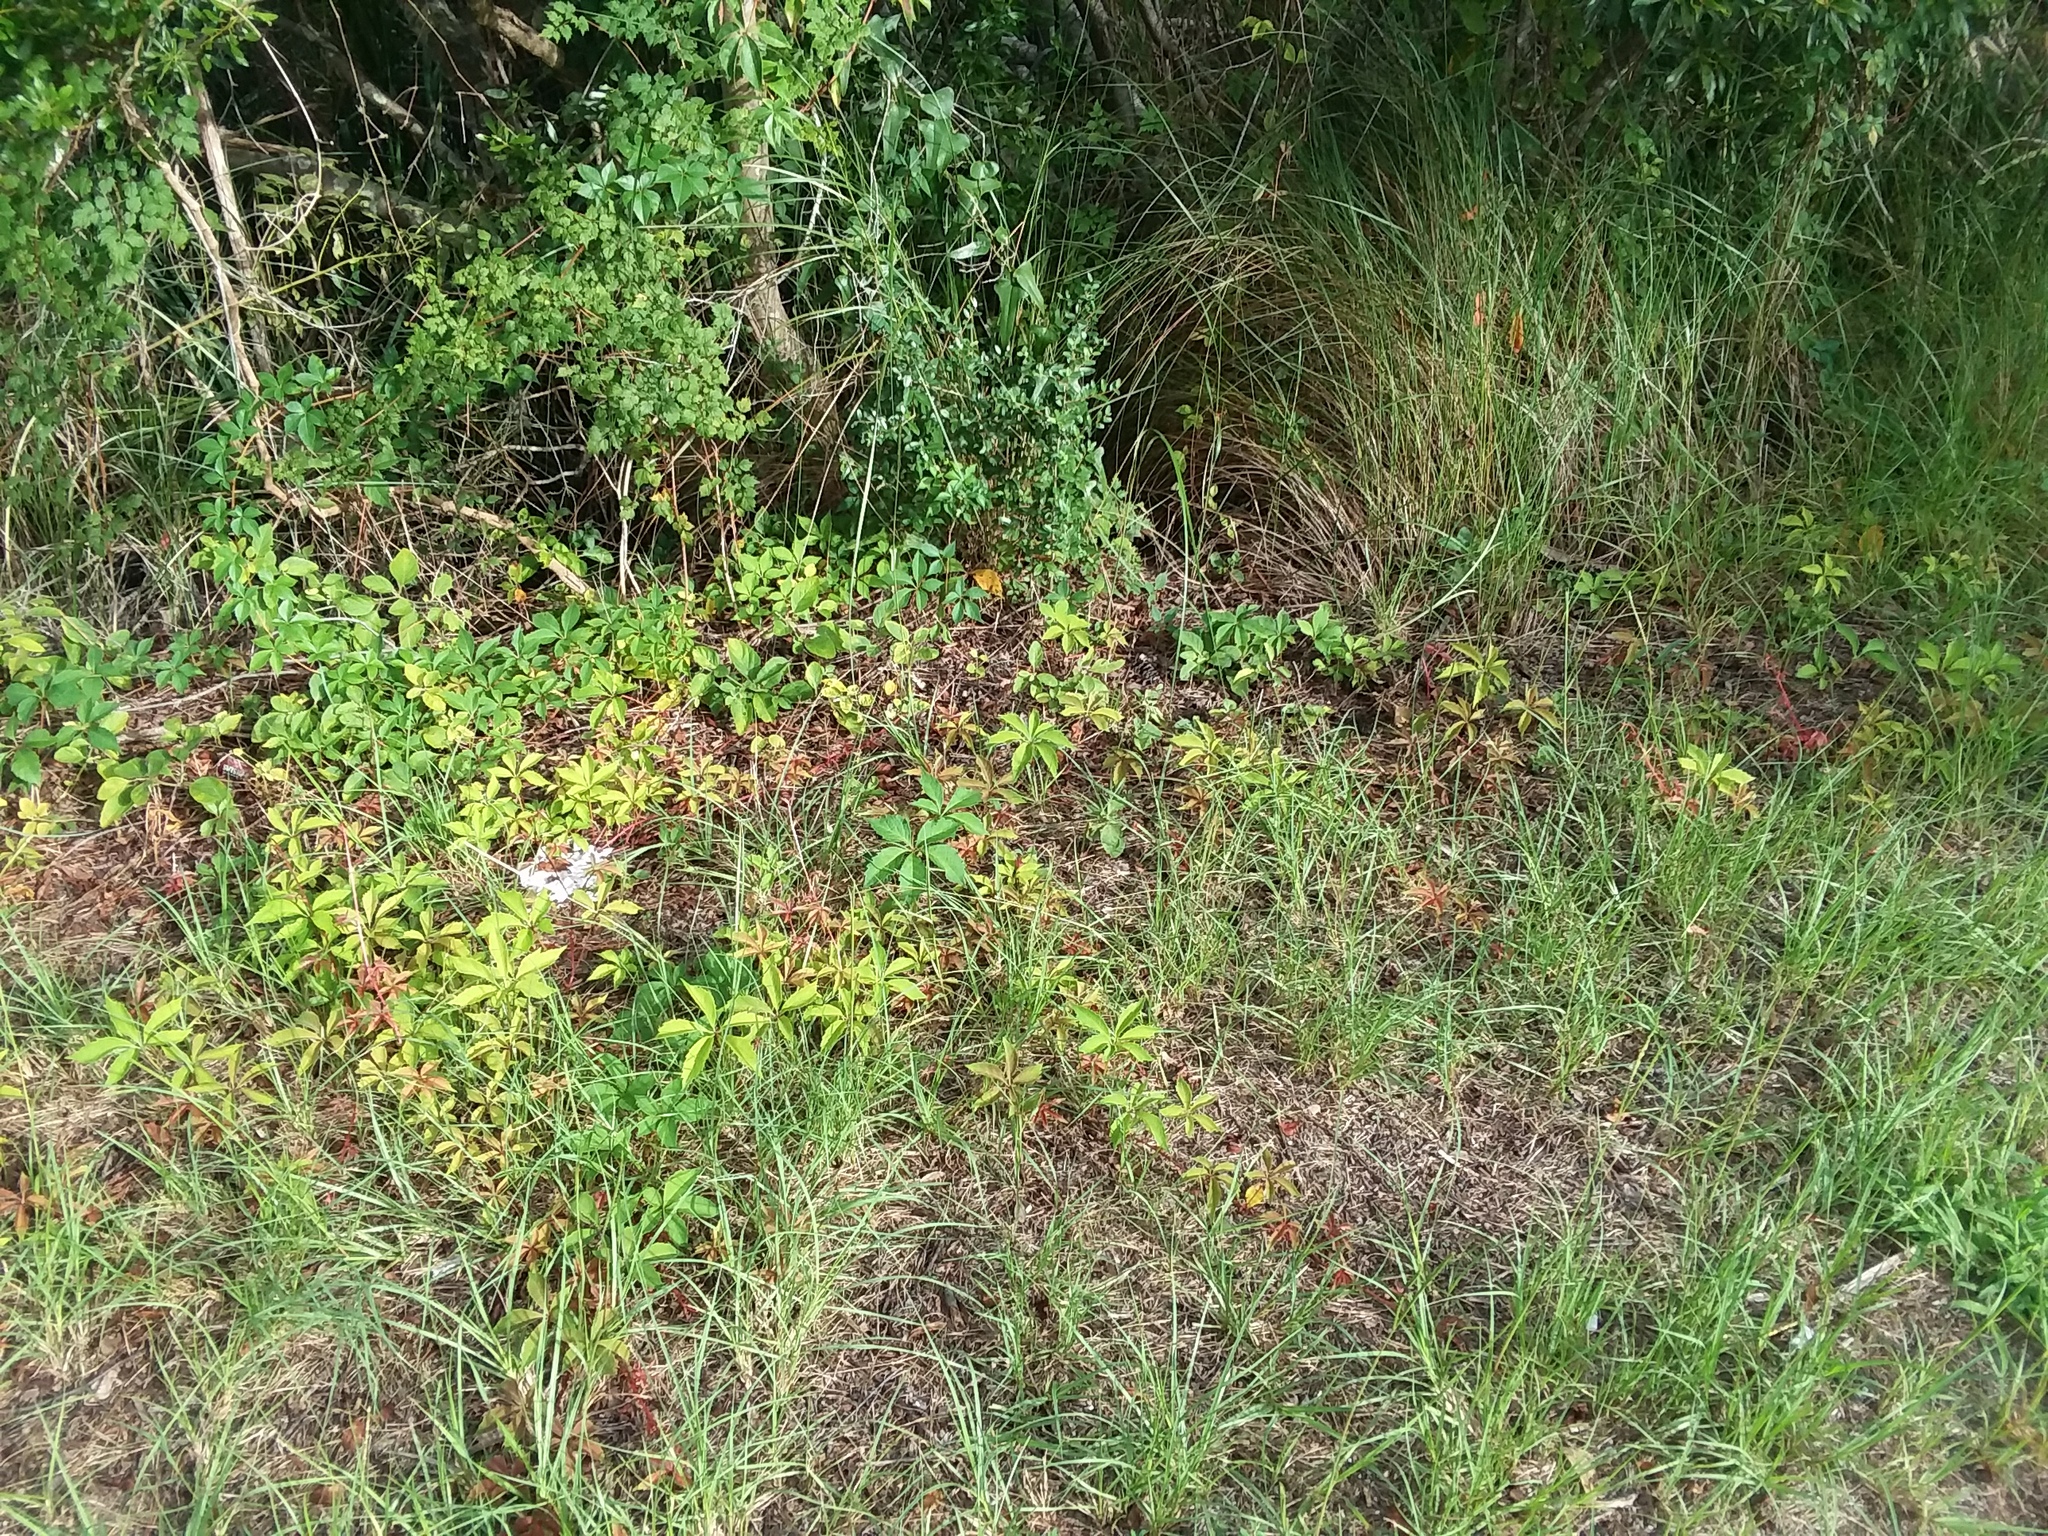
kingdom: Plantae
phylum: Tracheophyta
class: Magnoliopsida
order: Vitales
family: Vitaceae
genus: Parthenocissus
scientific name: Parthenocissus quinquefolia
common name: Virginia-creeper
